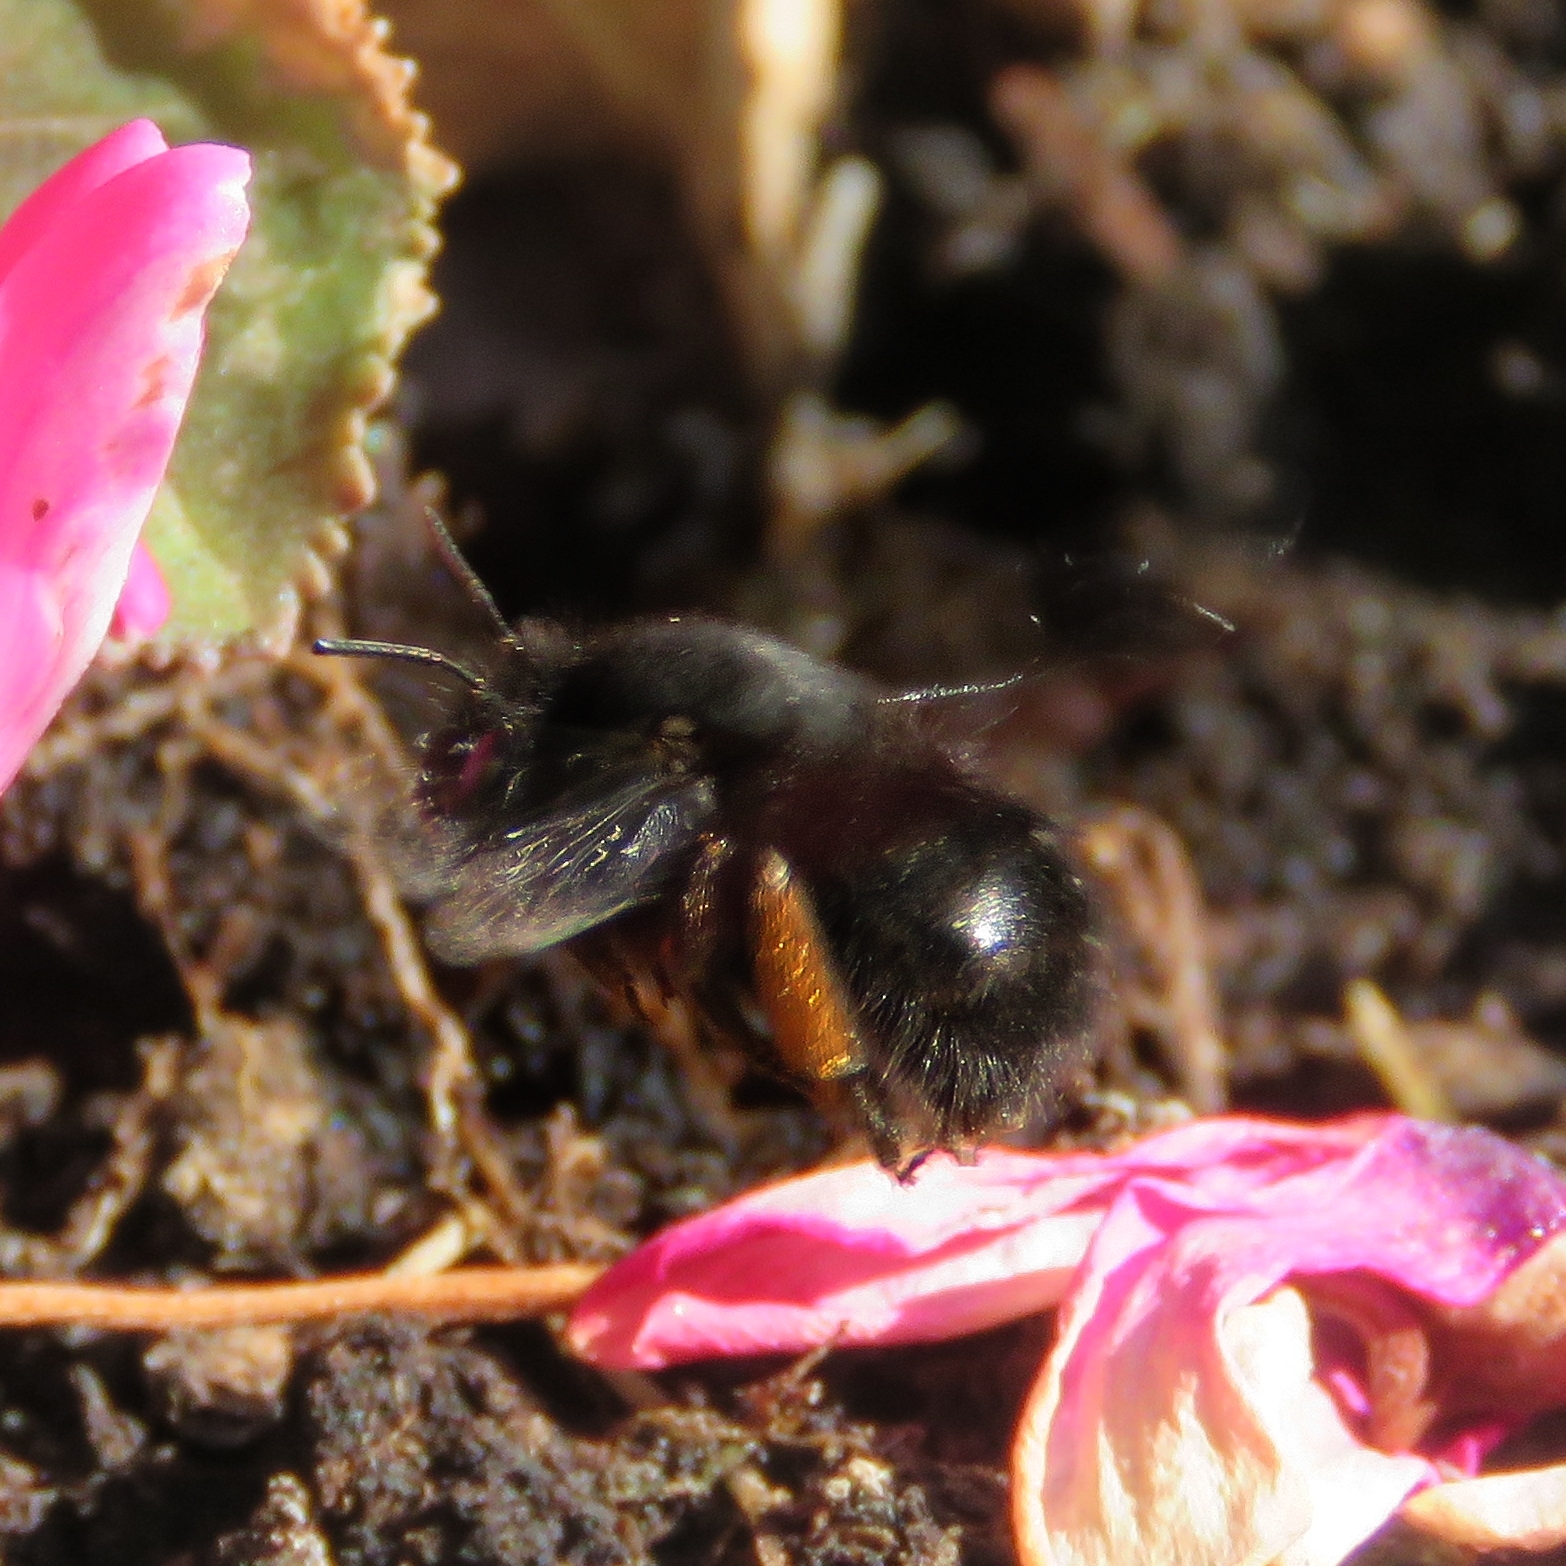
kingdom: Animalia
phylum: Arthropoda
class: Insecta
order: Hymenoptera
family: Apidae
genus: Anthophora
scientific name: Anthophora plumipes
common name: Hairy-footed flower bee
